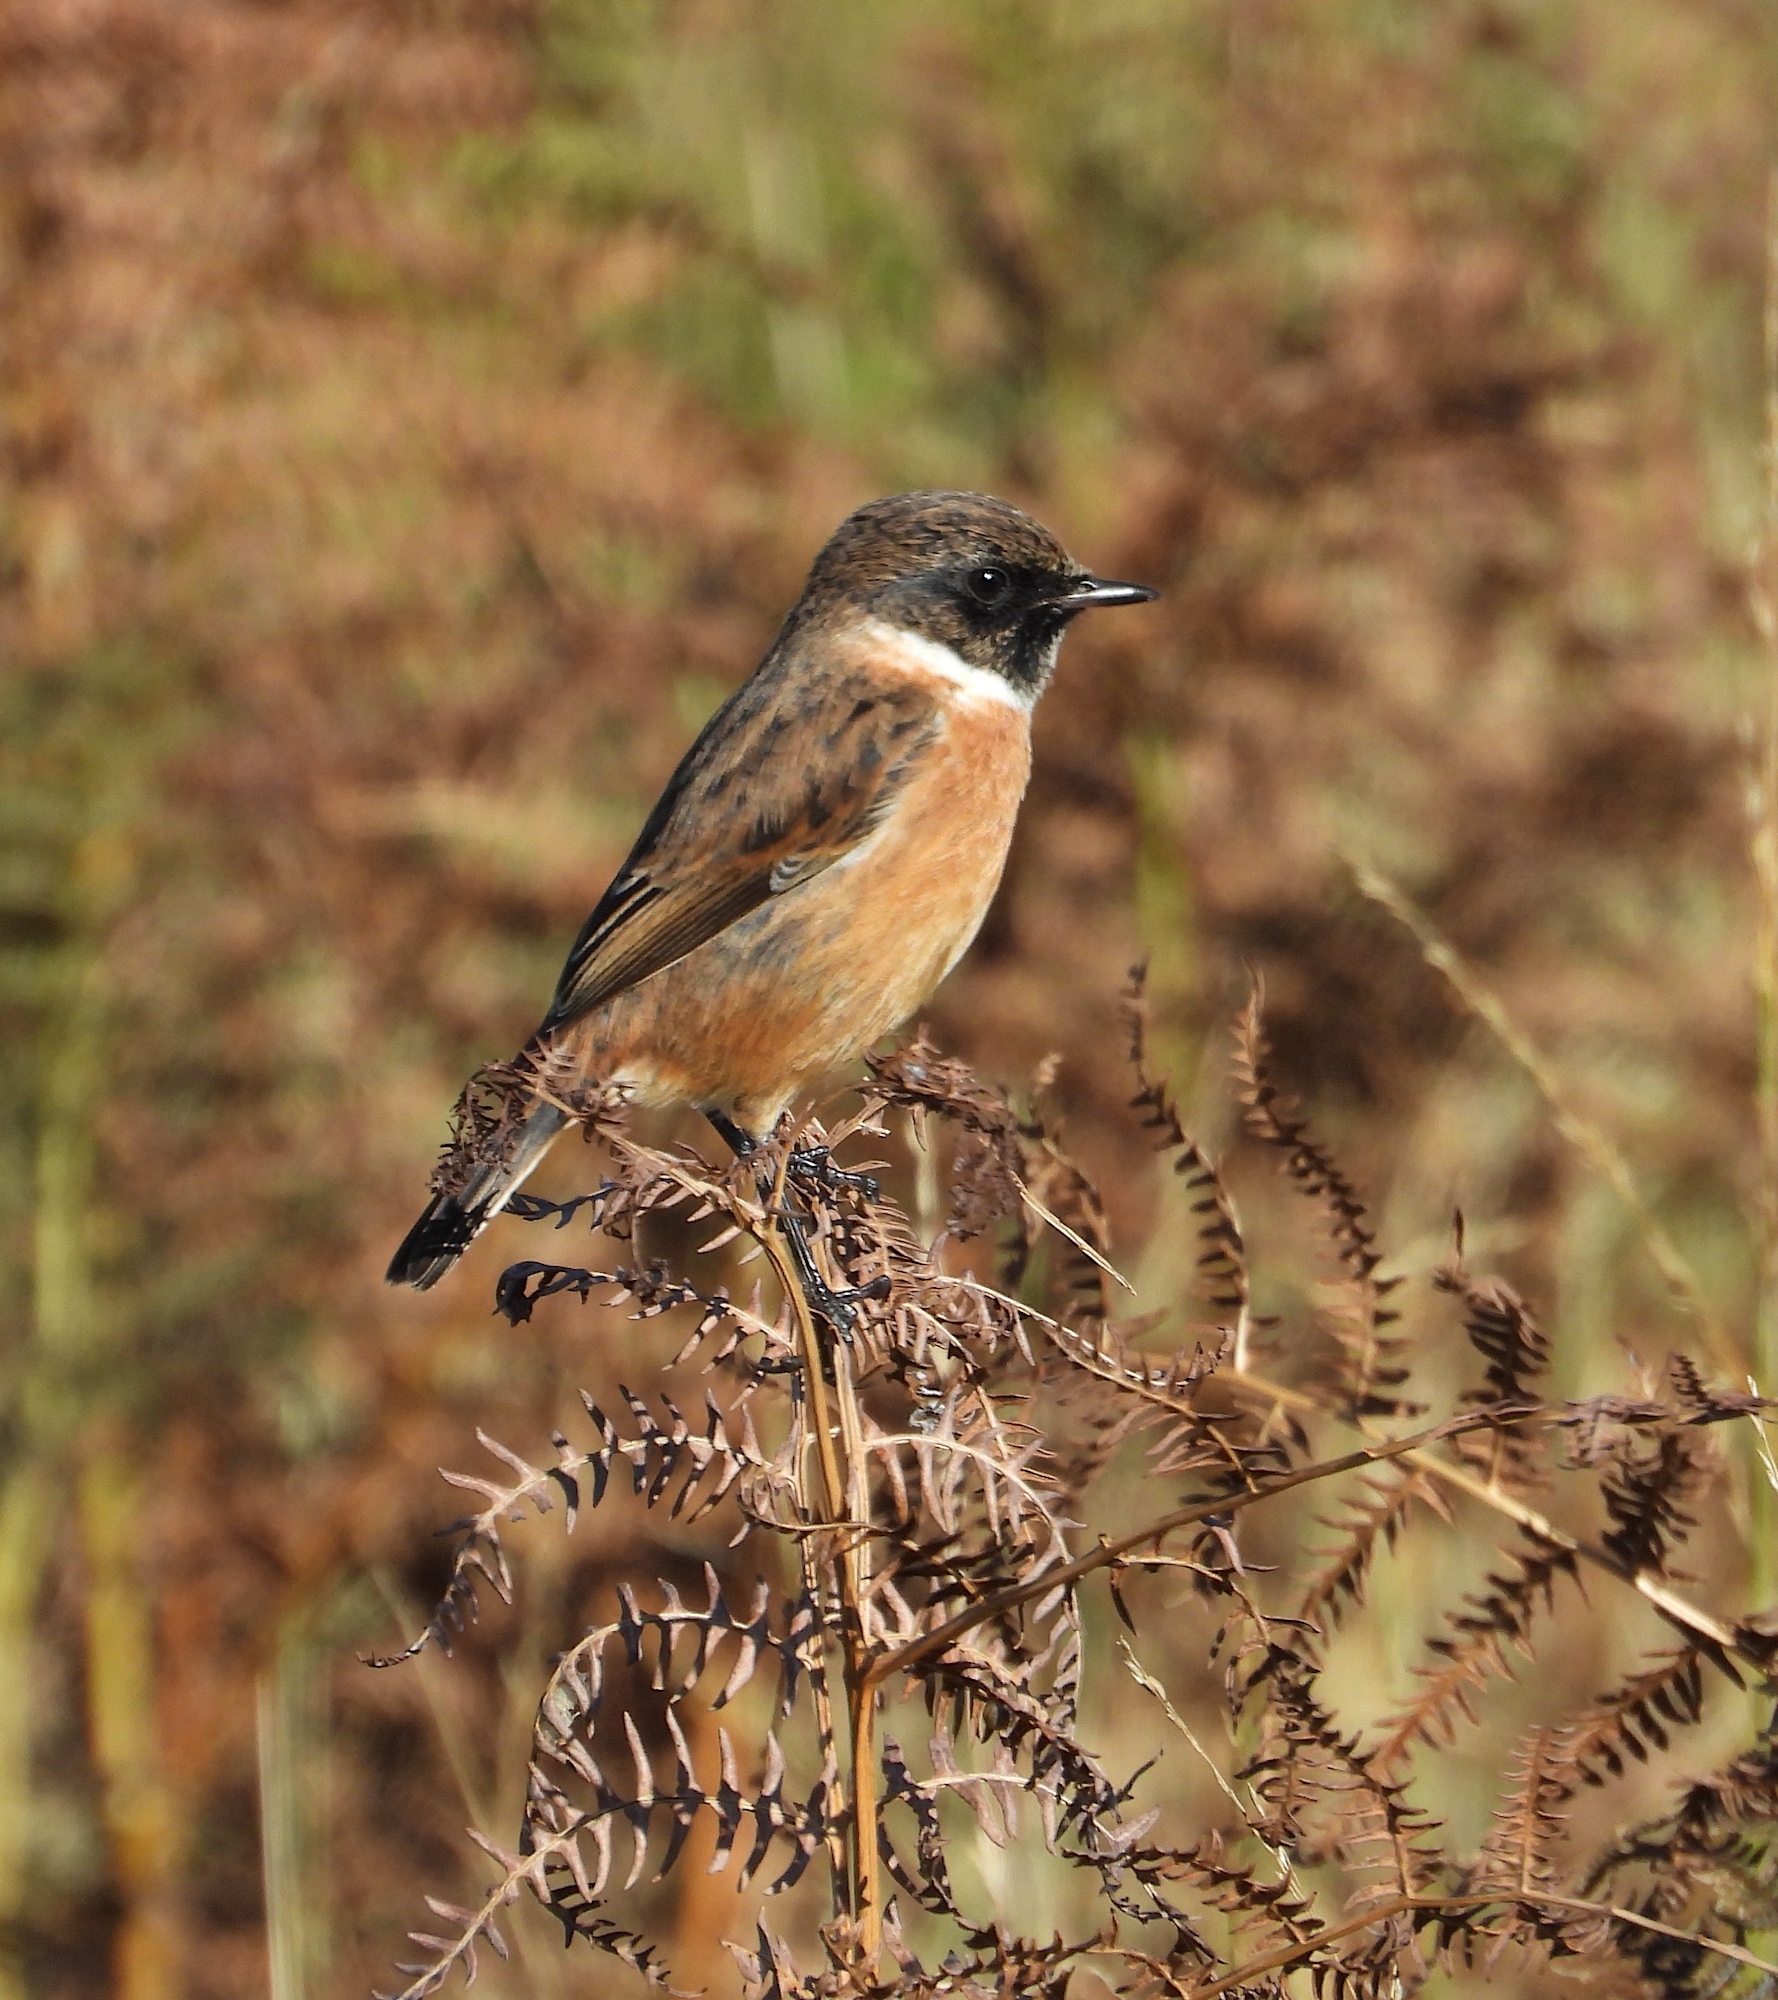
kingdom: Animalia
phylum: Chordata
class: Aves
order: Passeriformes
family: Muscicapidae
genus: Saxicola
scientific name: Saxicola rubicola
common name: European stonechat
